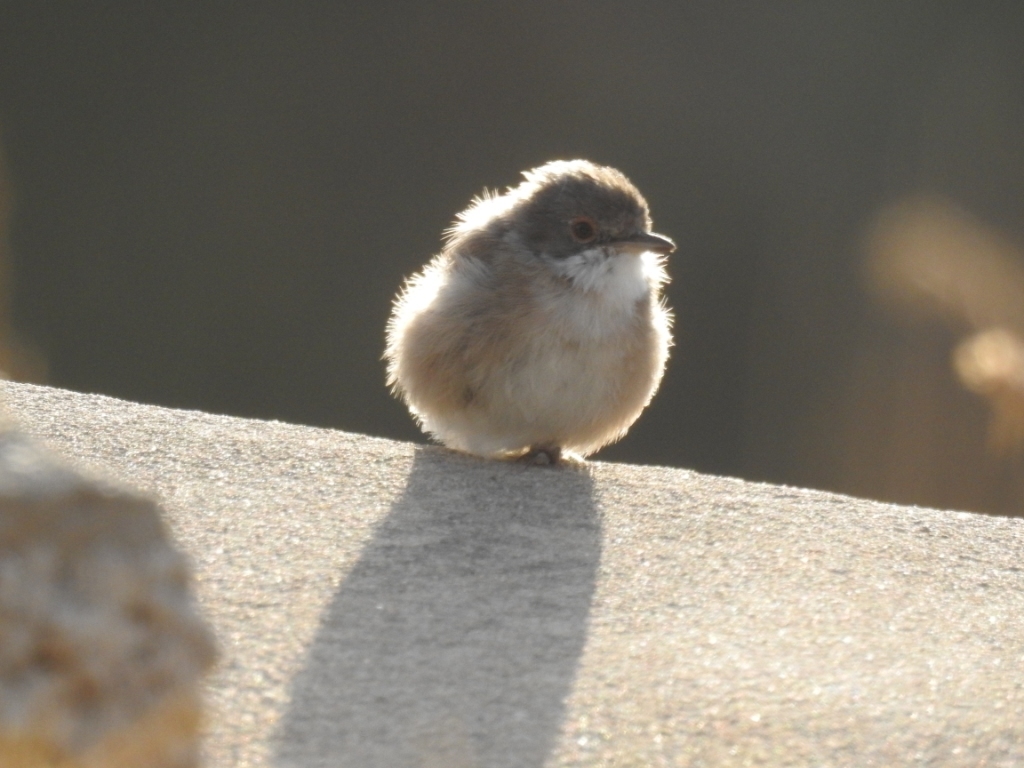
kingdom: Animalia
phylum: Chordata
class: Aves
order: Passeriformes
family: Sylviidae
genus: Curruca
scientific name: Curruca melanocephala
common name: Sardinian warbler
